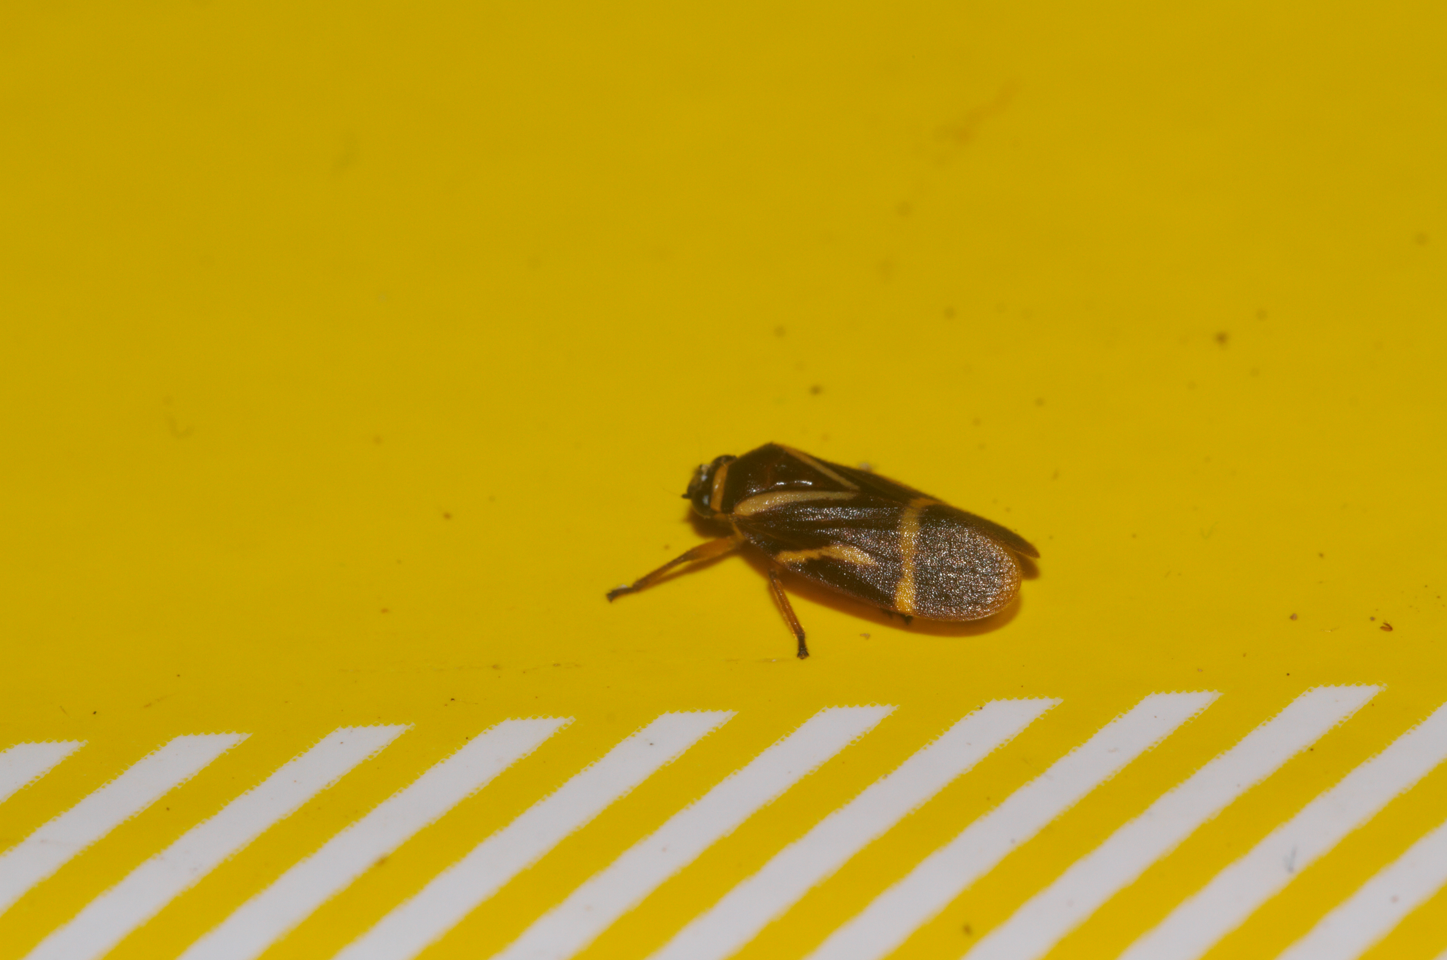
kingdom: Animalia
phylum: Arthropoda
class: Insecta
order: Hemiptera
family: Cercopidae
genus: Maxantonia
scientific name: Maxantonia lineola
